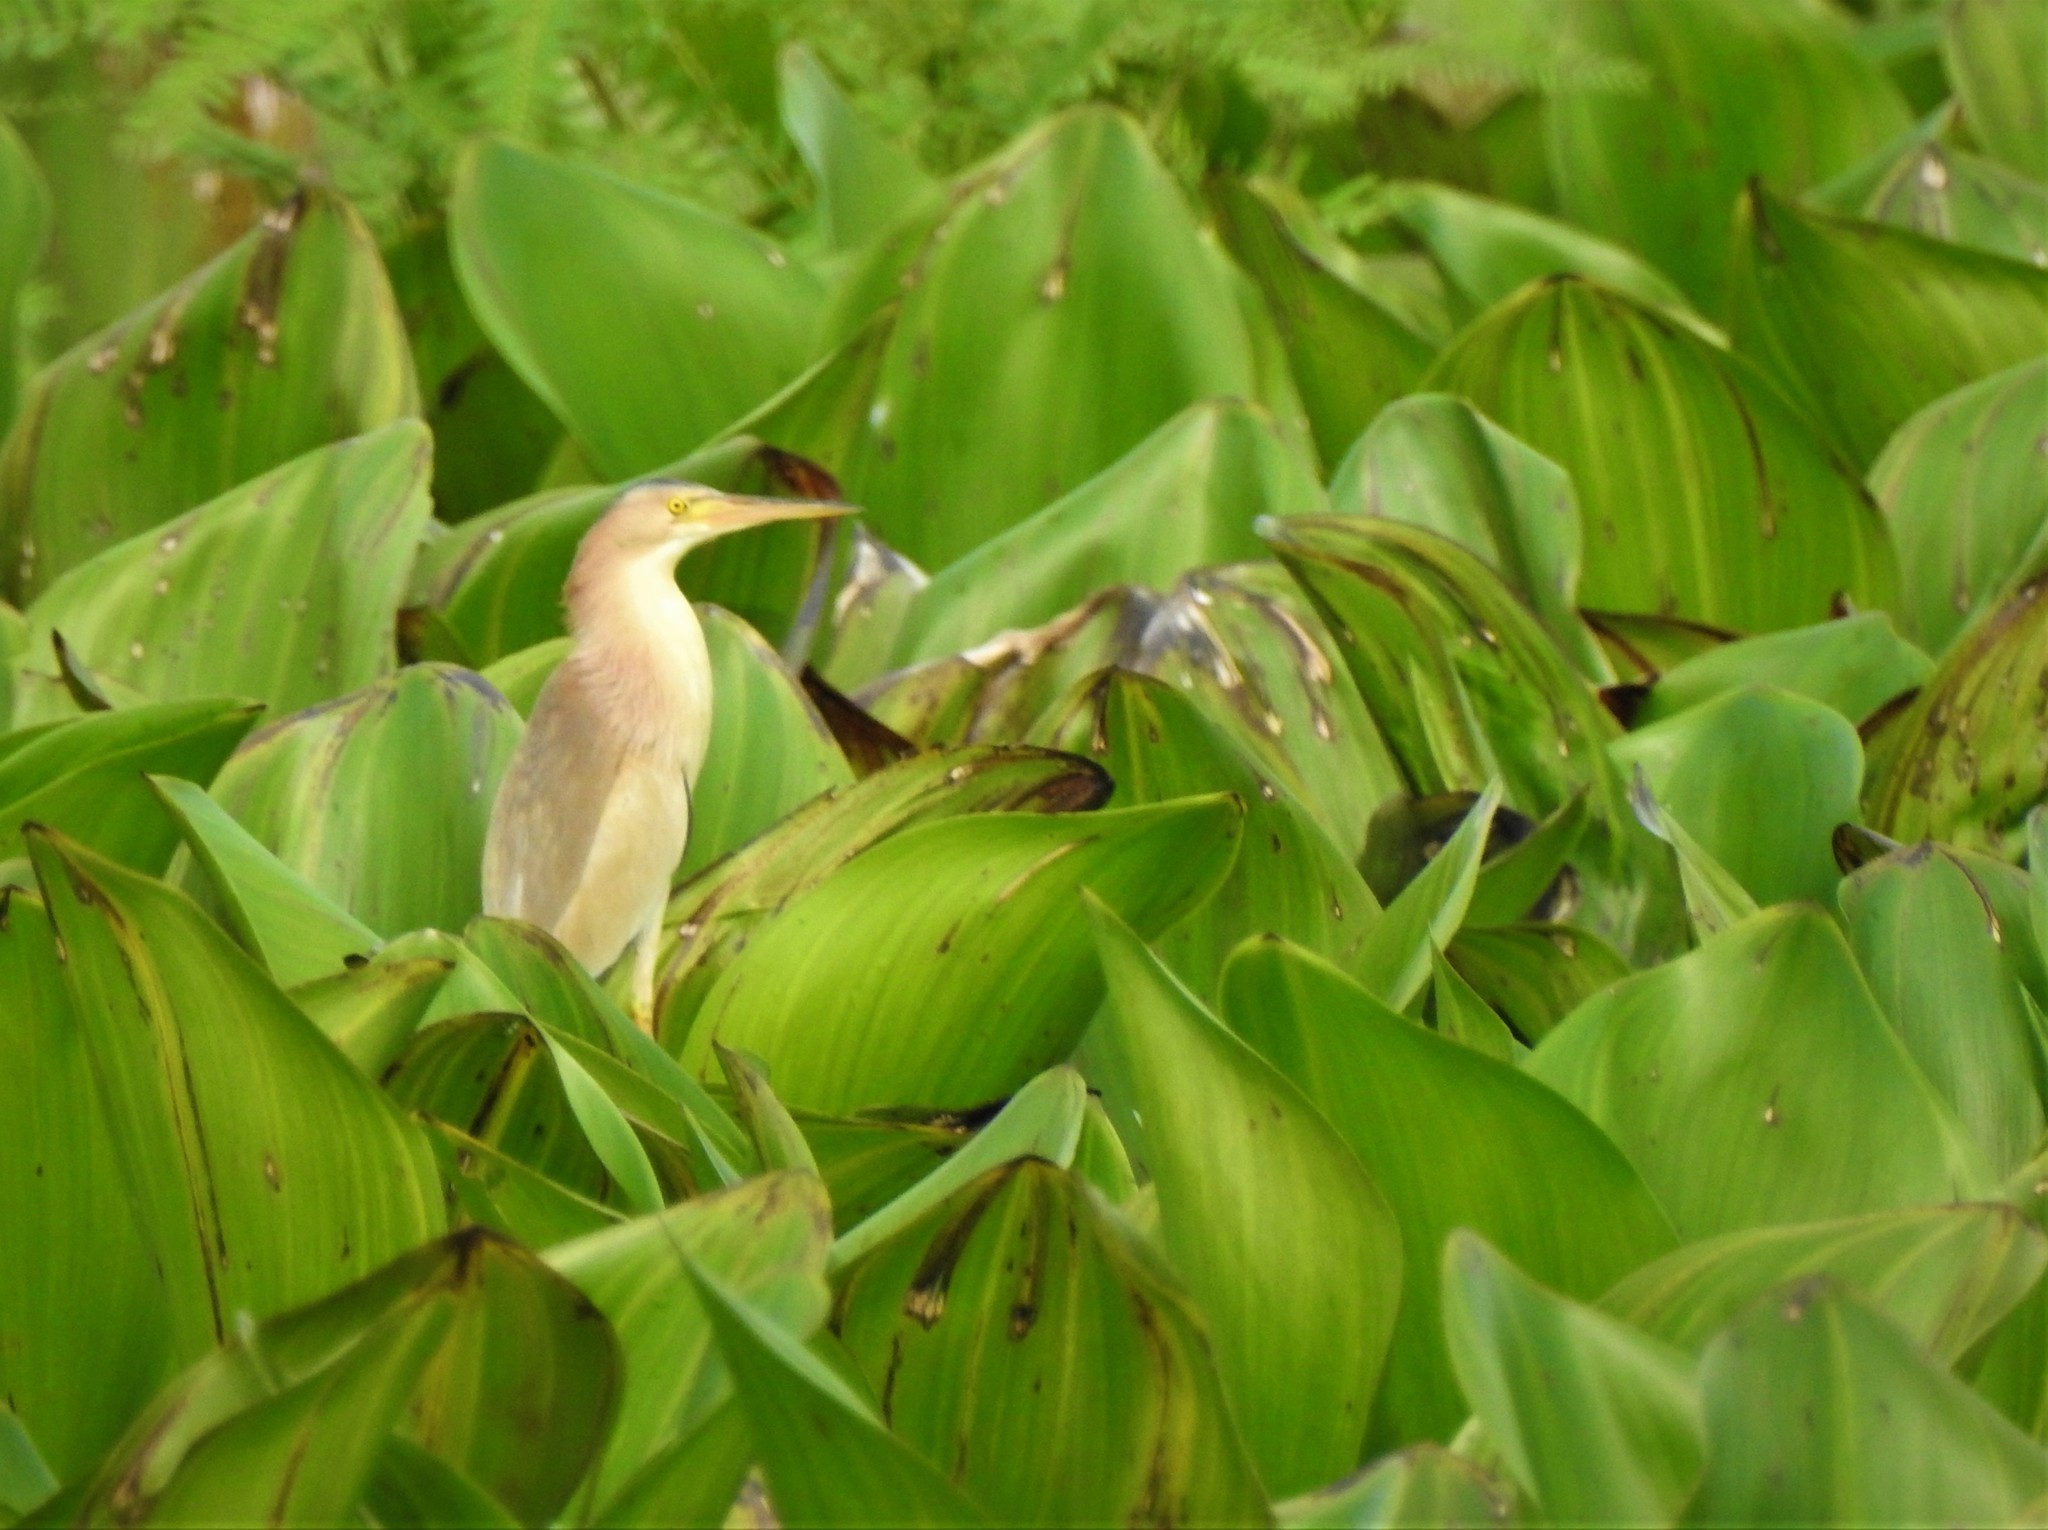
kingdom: Animalia
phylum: Chordata
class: Aves
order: Pelecaniformes
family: Ardeidae
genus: Ixobrychus
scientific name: Ixobrychus sinensis
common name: Yellow bittern
